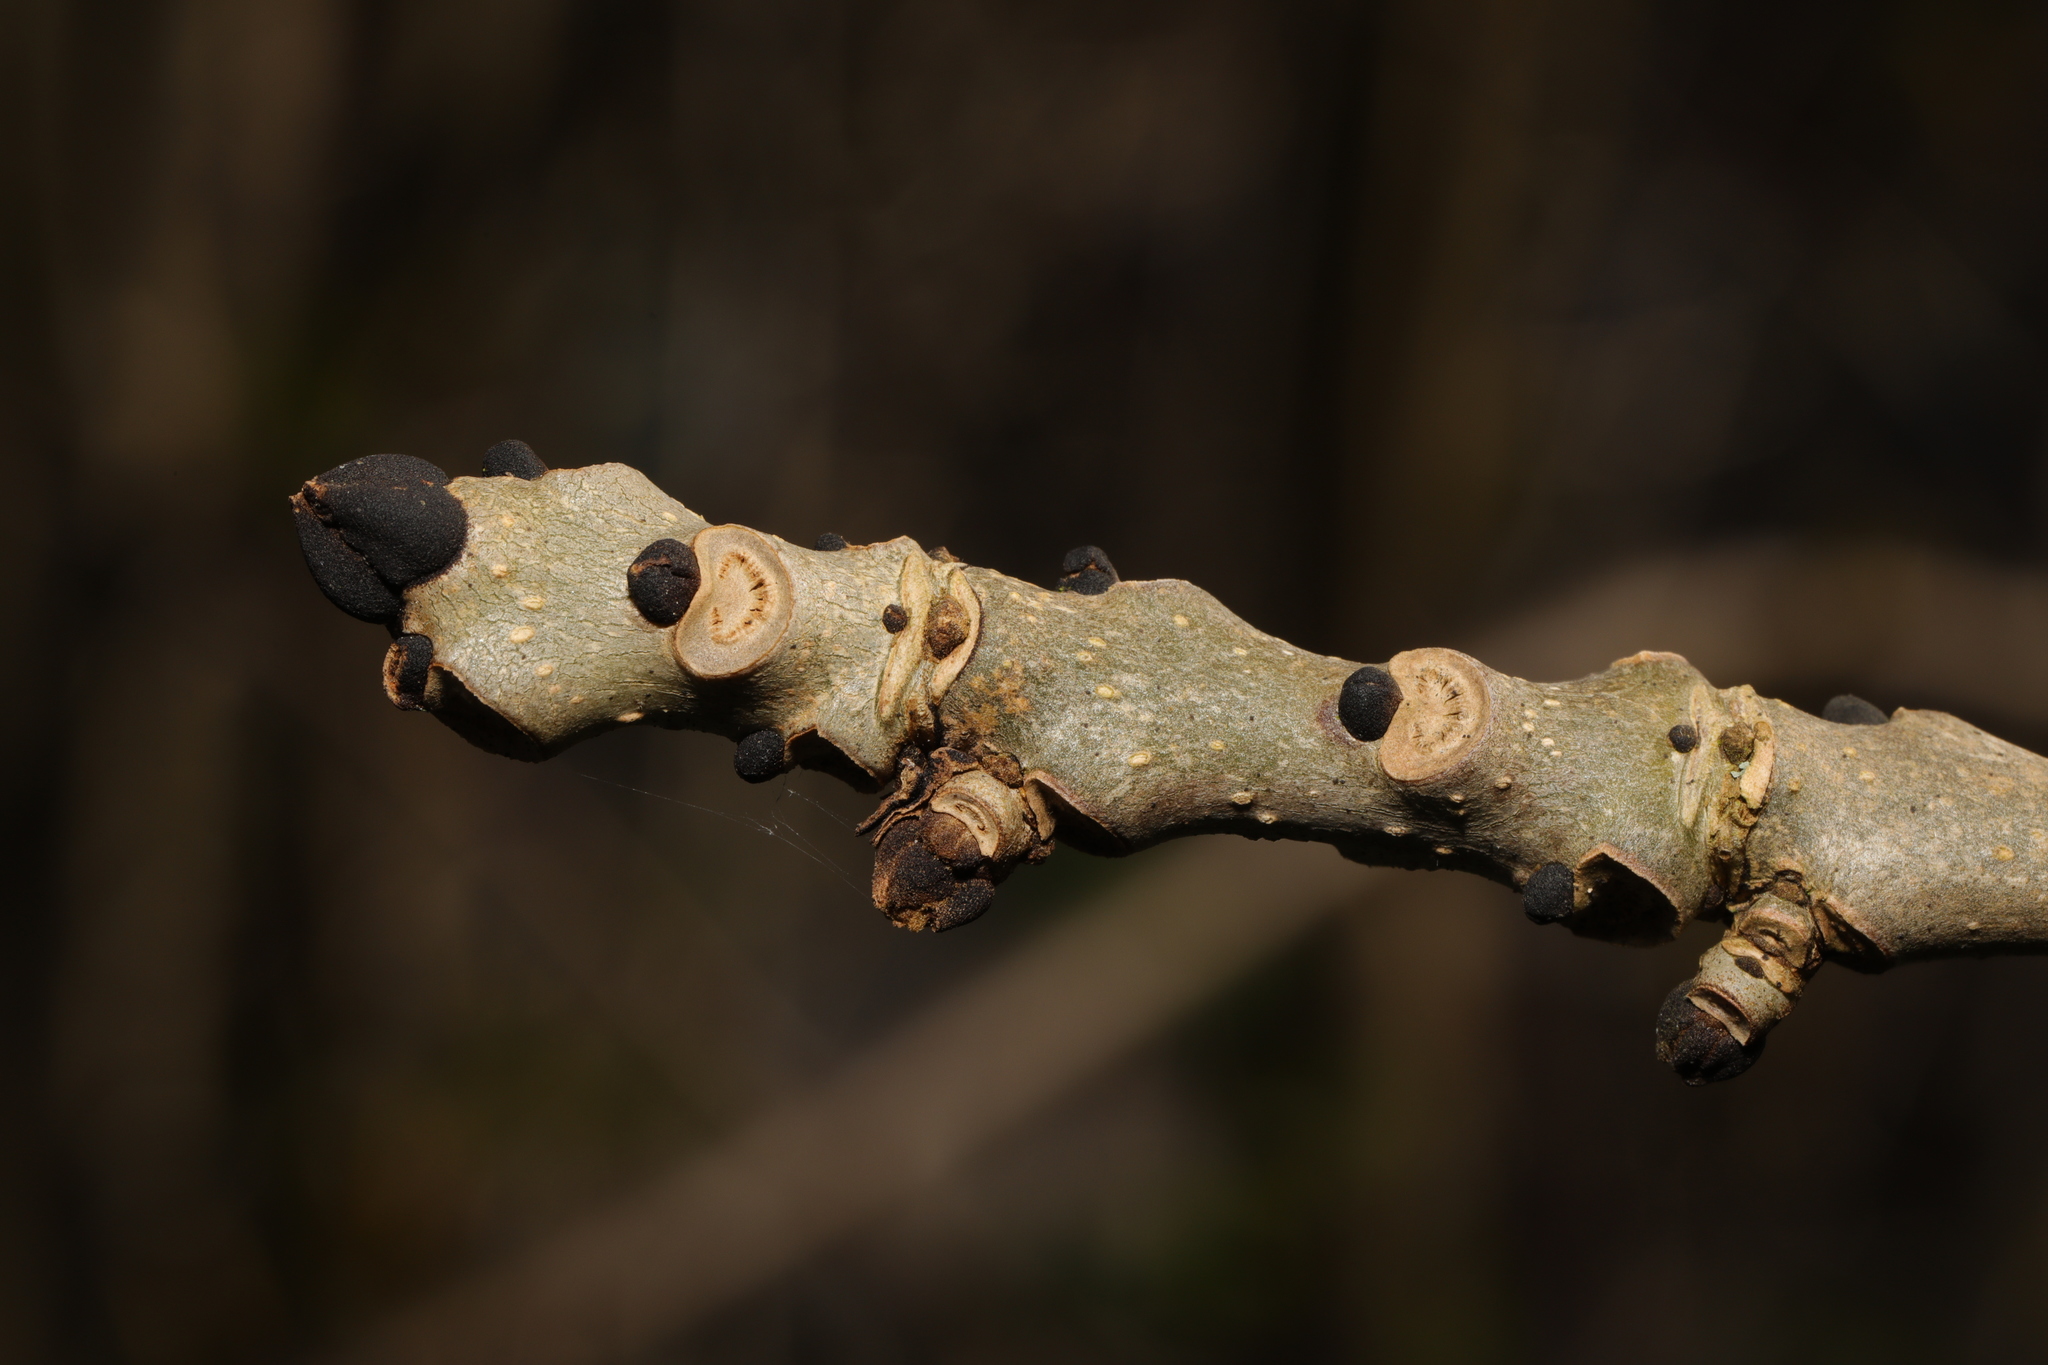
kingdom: Plantae
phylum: Tracheophyta
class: Magnoliopsida
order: Lamiales
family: Oleaceae
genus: Fraxinus
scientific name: Fraxinus excelsior
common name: European ash
